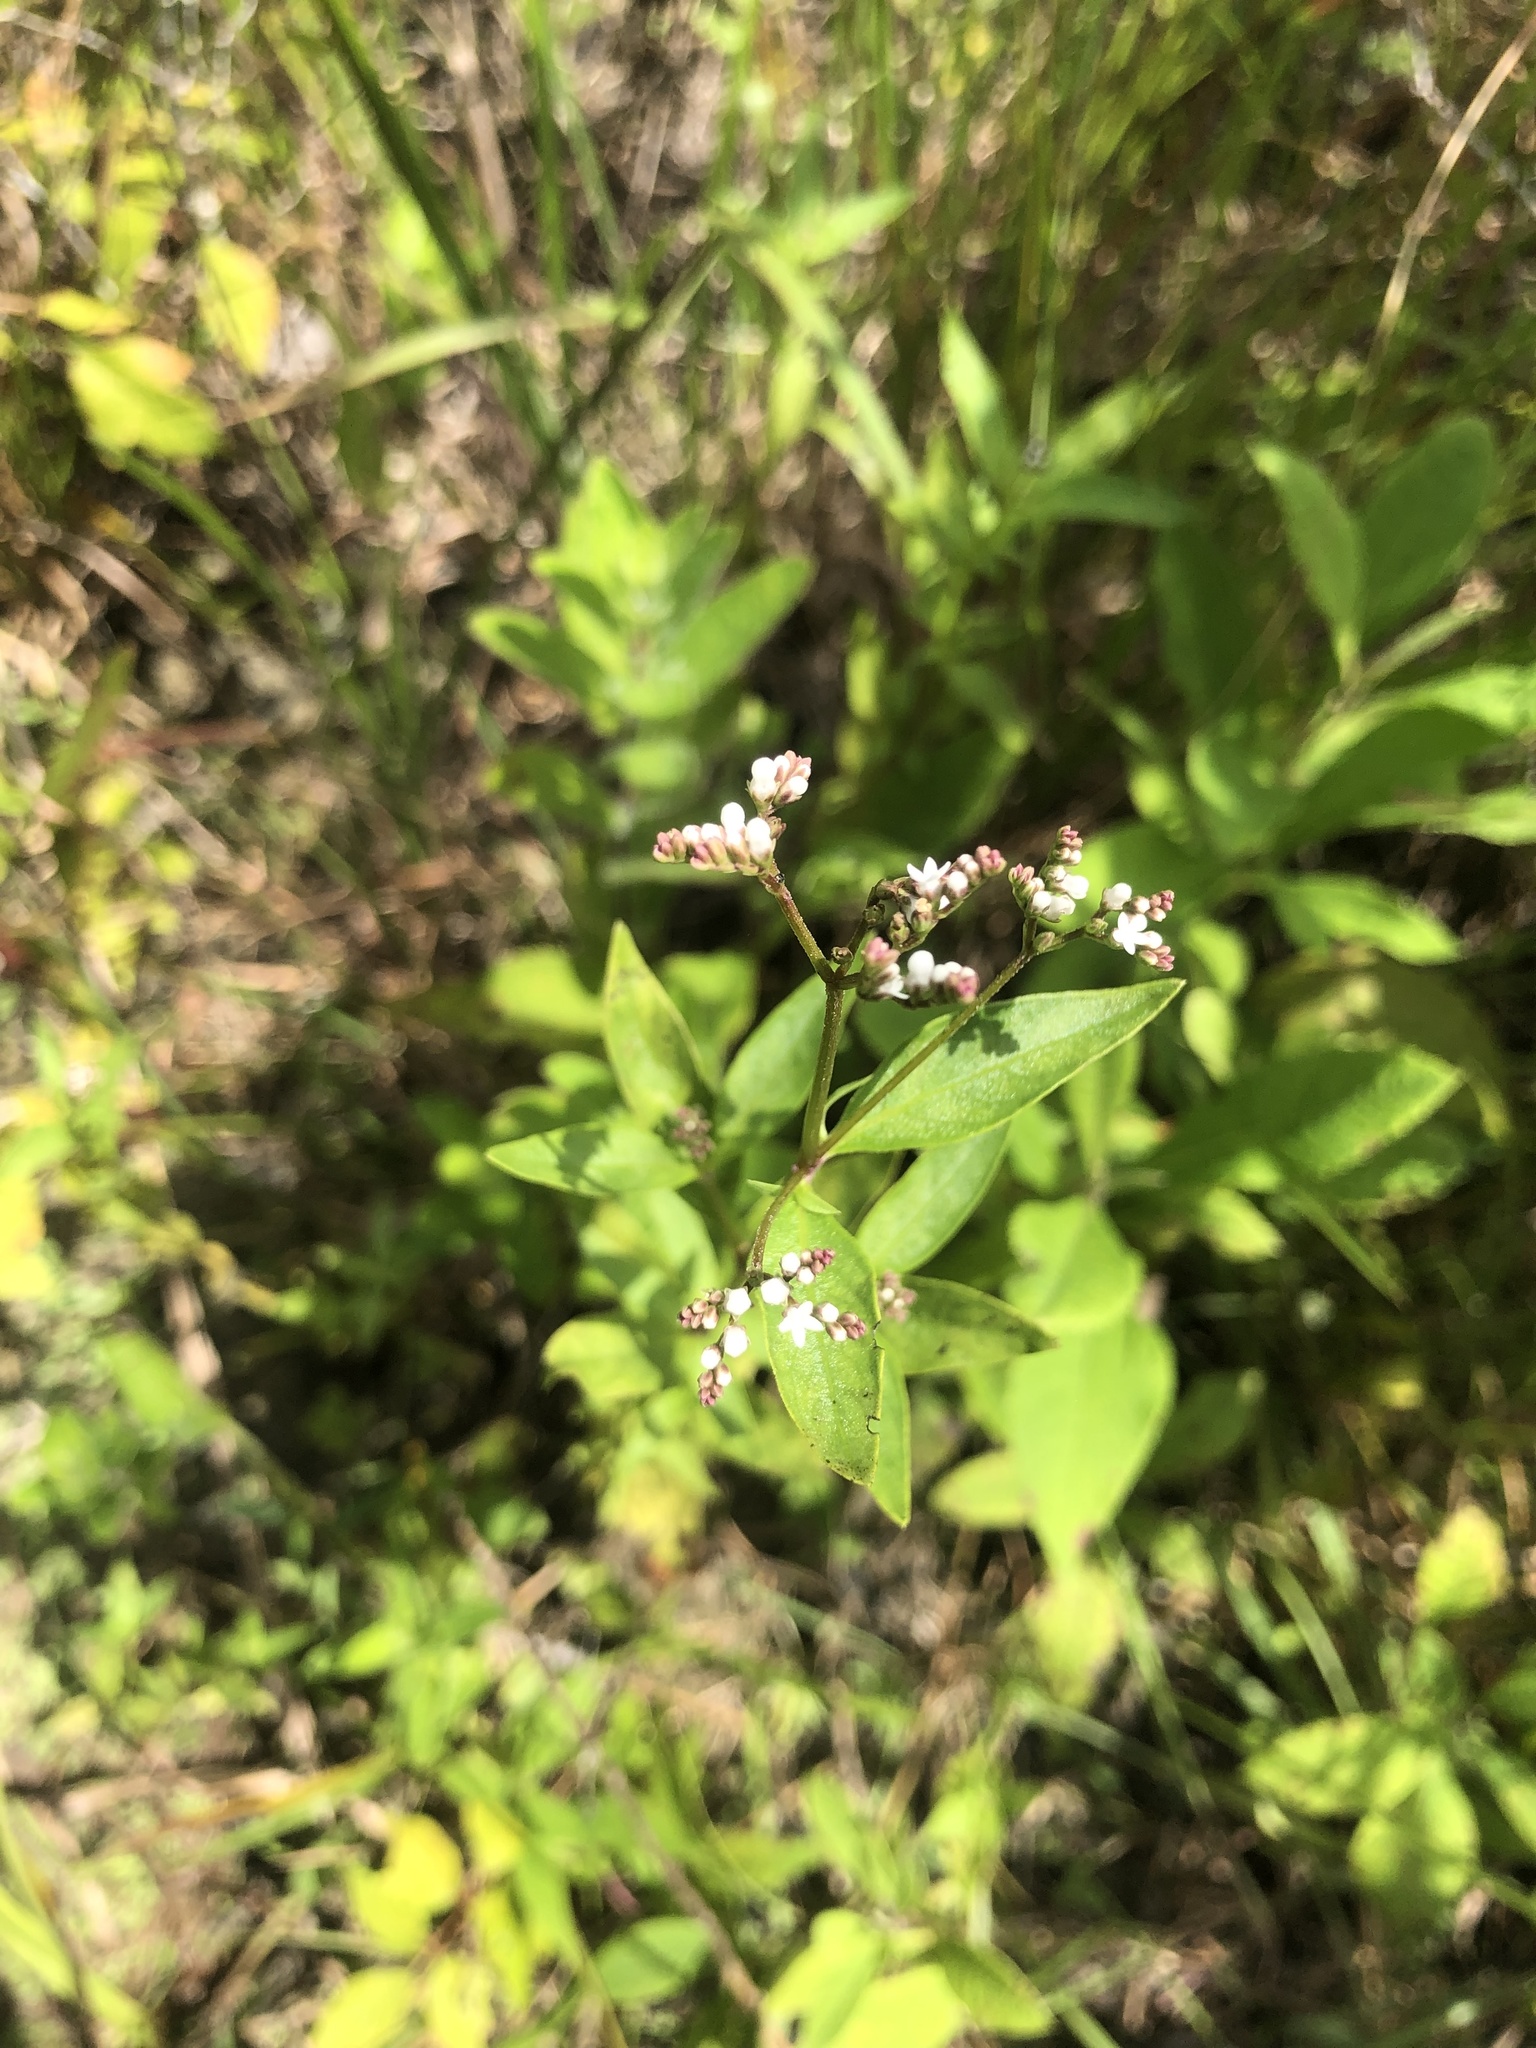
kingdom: Plantae
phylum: Tracheophyta
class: Magnoliopsida
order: Gentianales
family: Loganiaceae
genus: Mitreola
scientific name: Mitreola petiolata
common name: Lax hornpod
